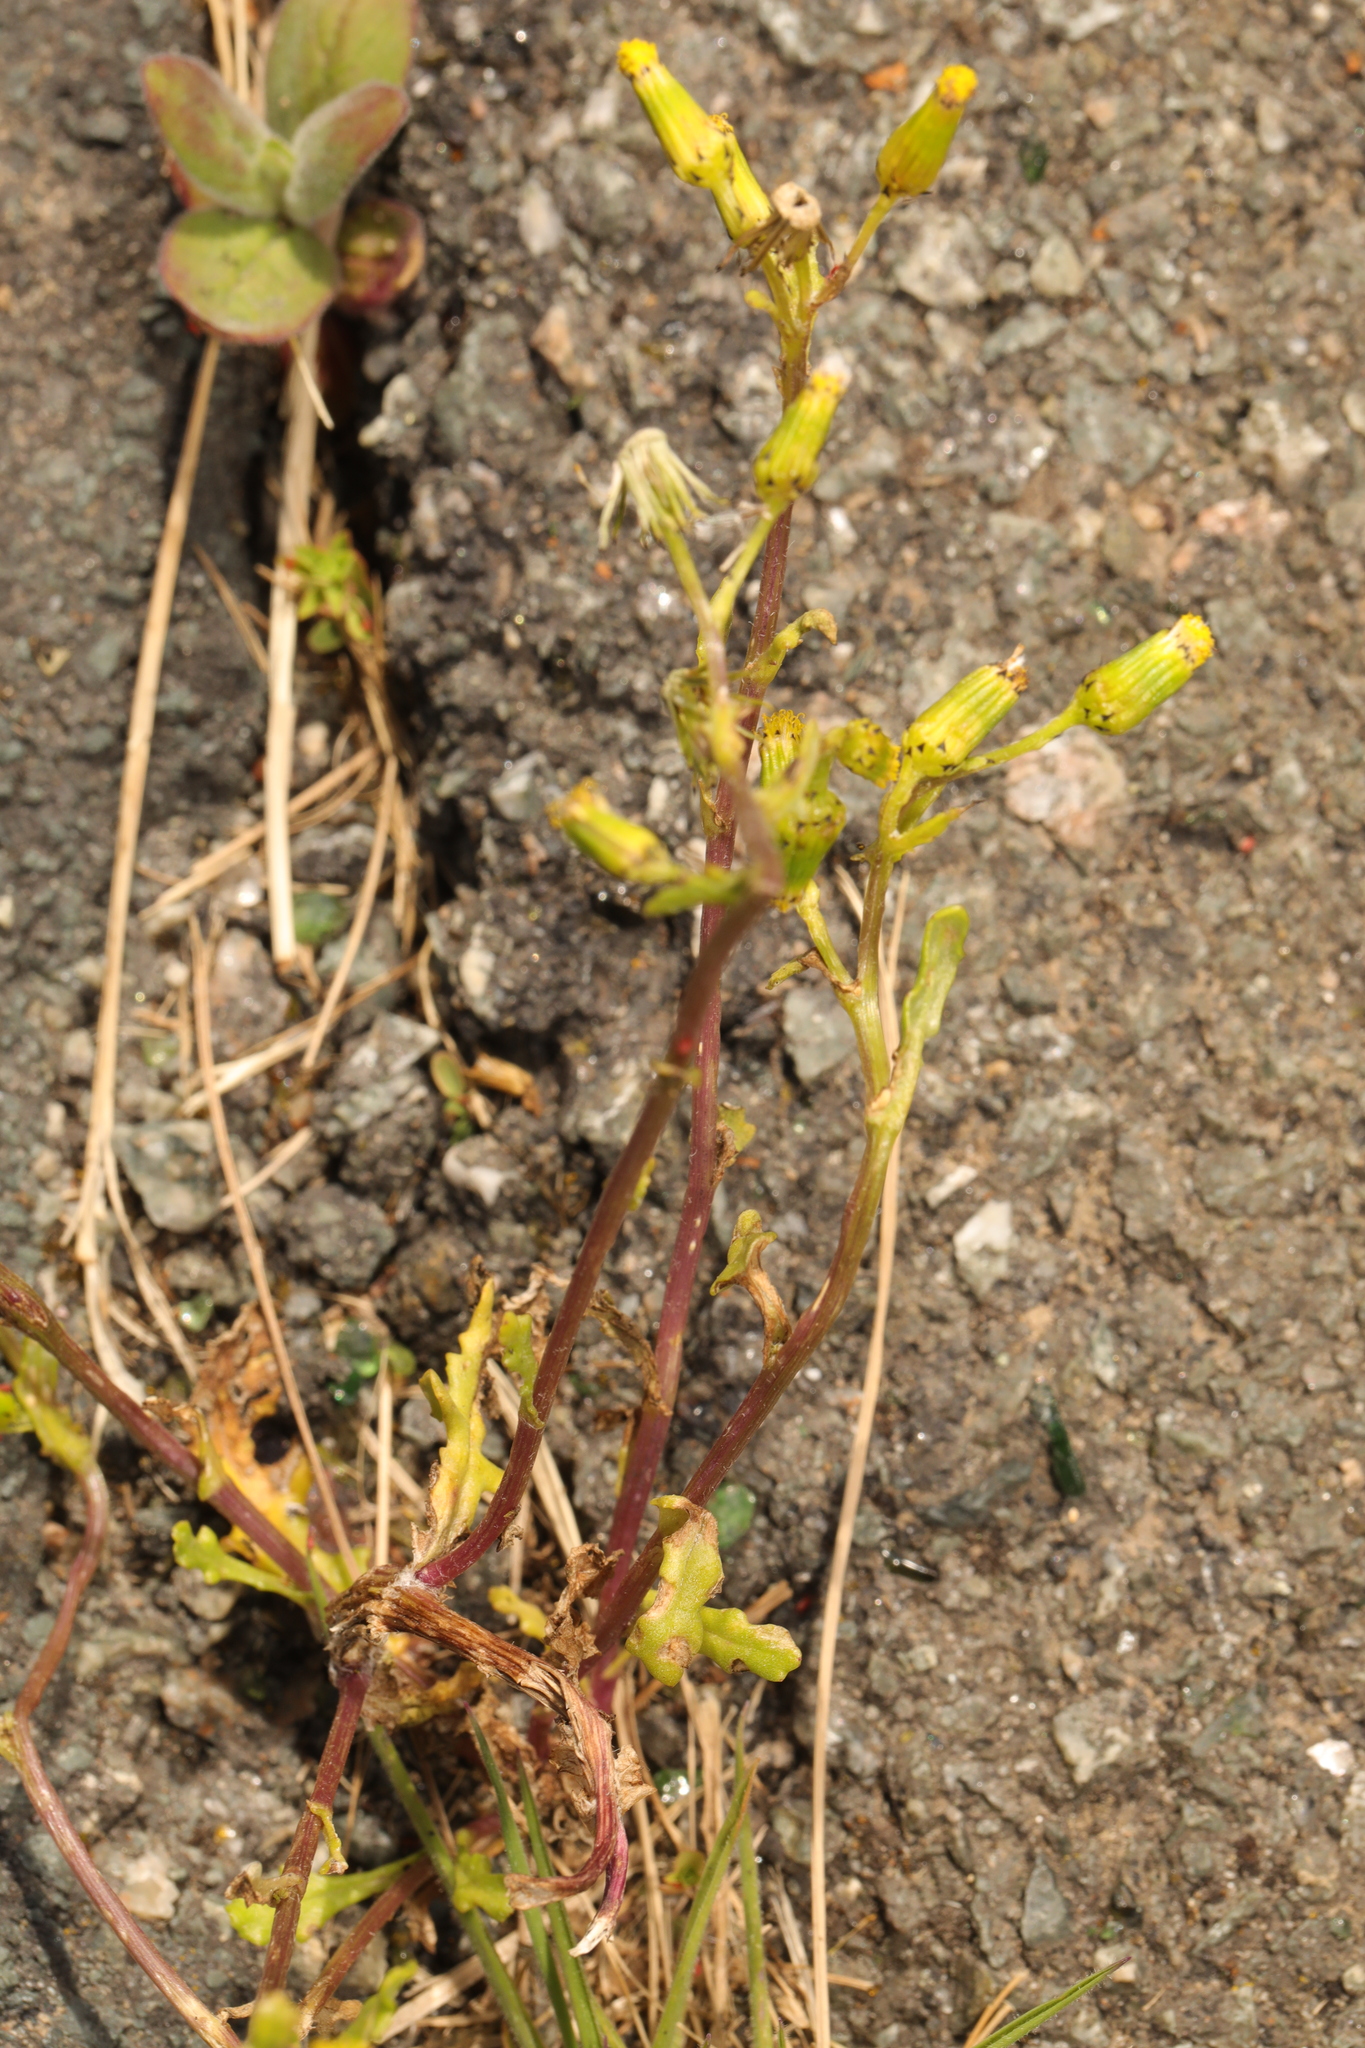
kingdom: Plantae
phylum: Tracheophyta
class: Magnoliopsida
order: Asterales
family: Asteraceae
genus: Senecio
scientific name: Senecio vulgaris
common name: Old-man-in-the-spring
